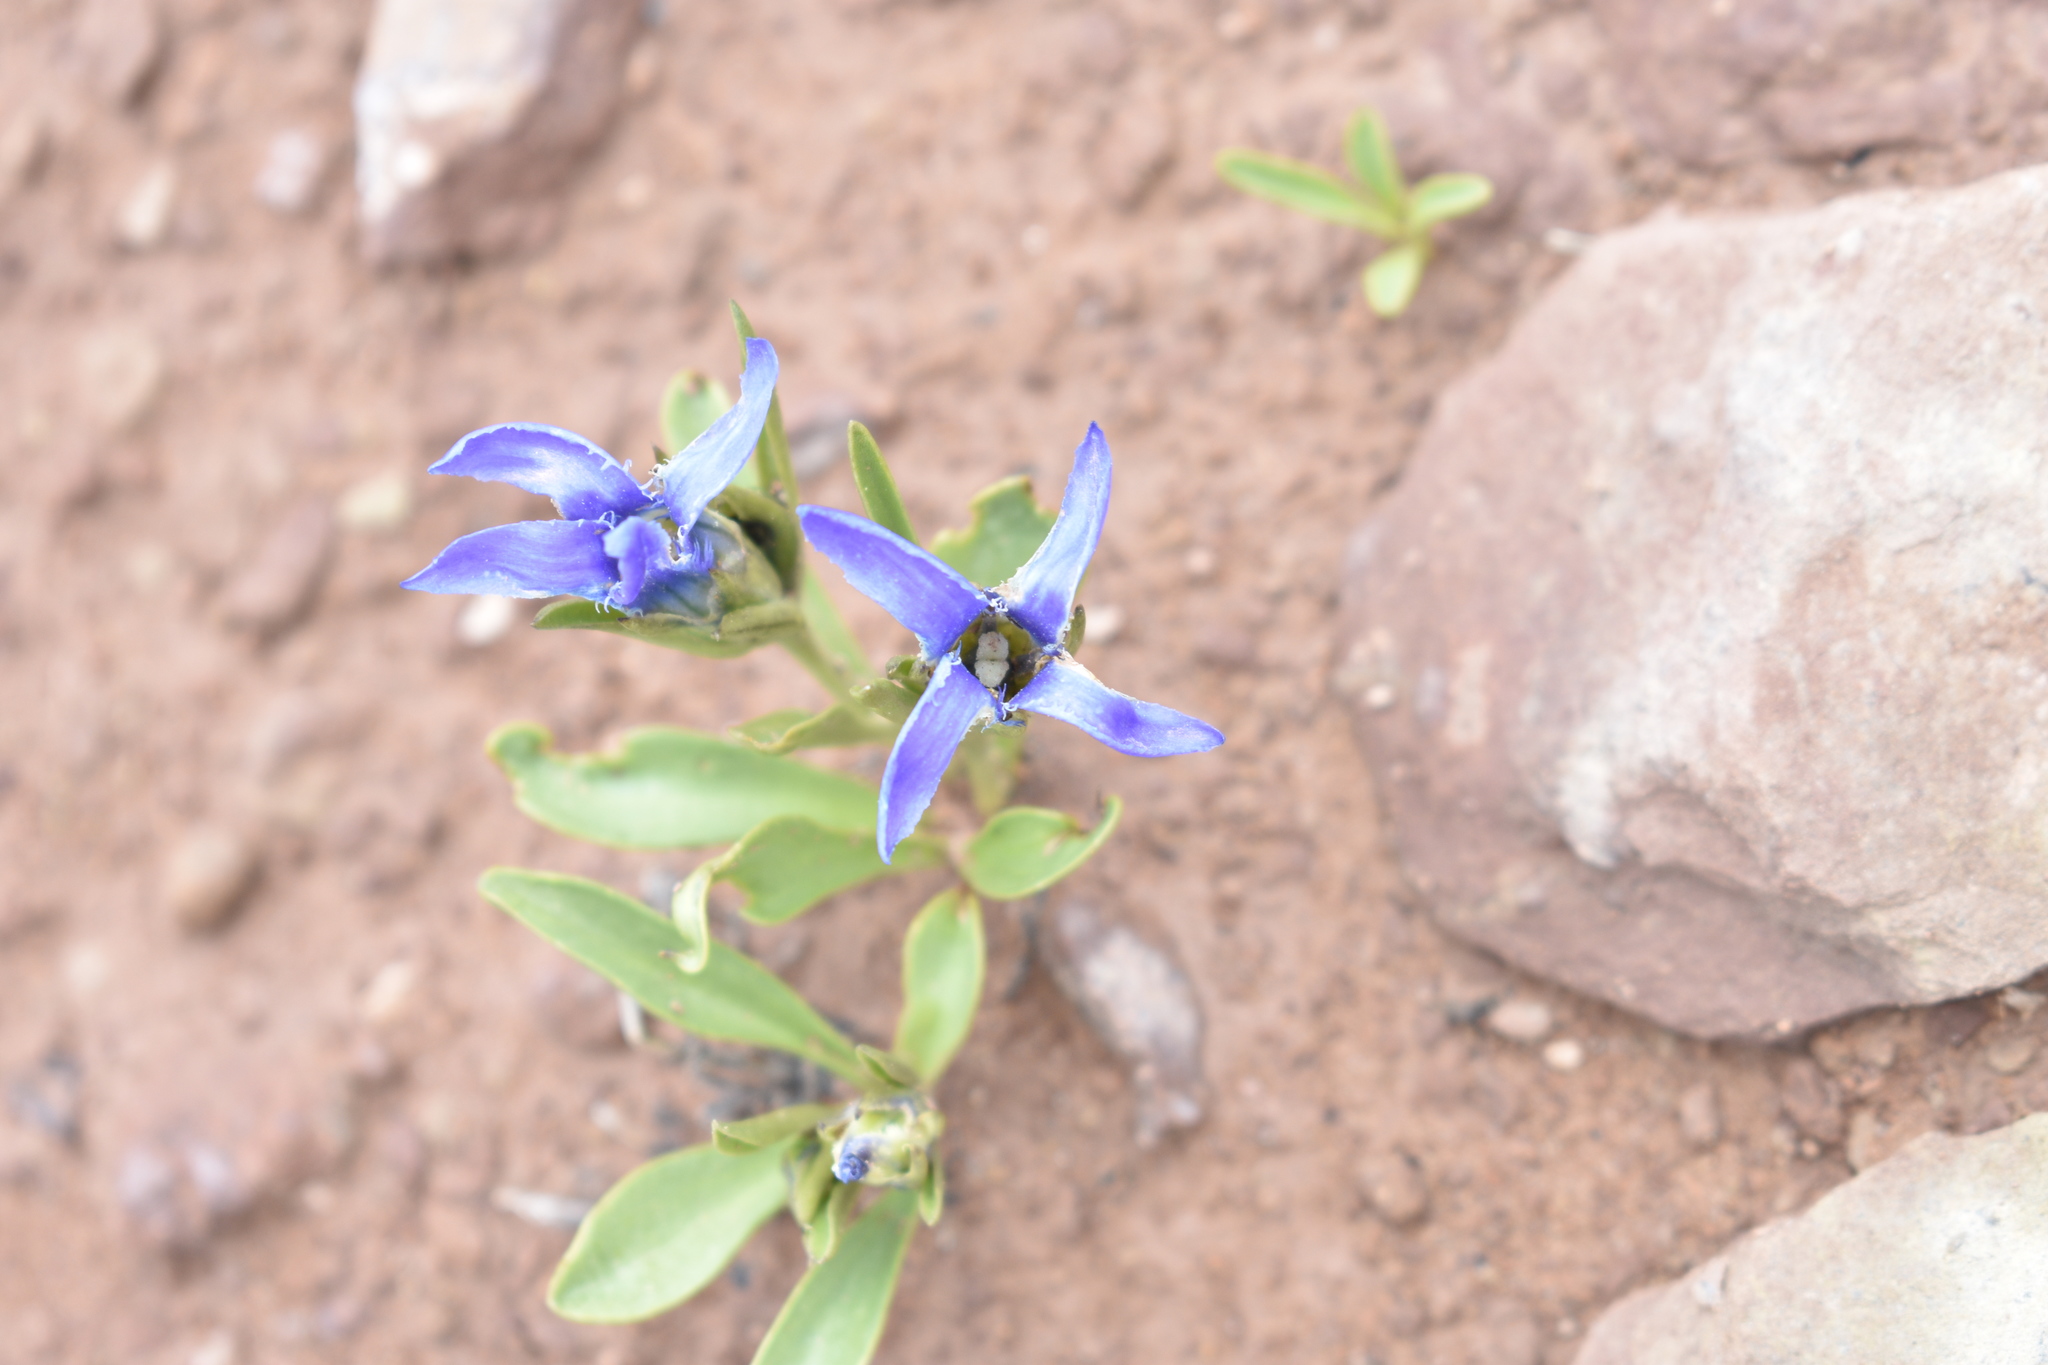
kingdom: Plantae
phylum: Tracheophyta
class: Magnoliopsida
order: Gentianales
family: Gentianaceae
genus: Gentianopsis
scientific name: Gentianopsis barbellata
